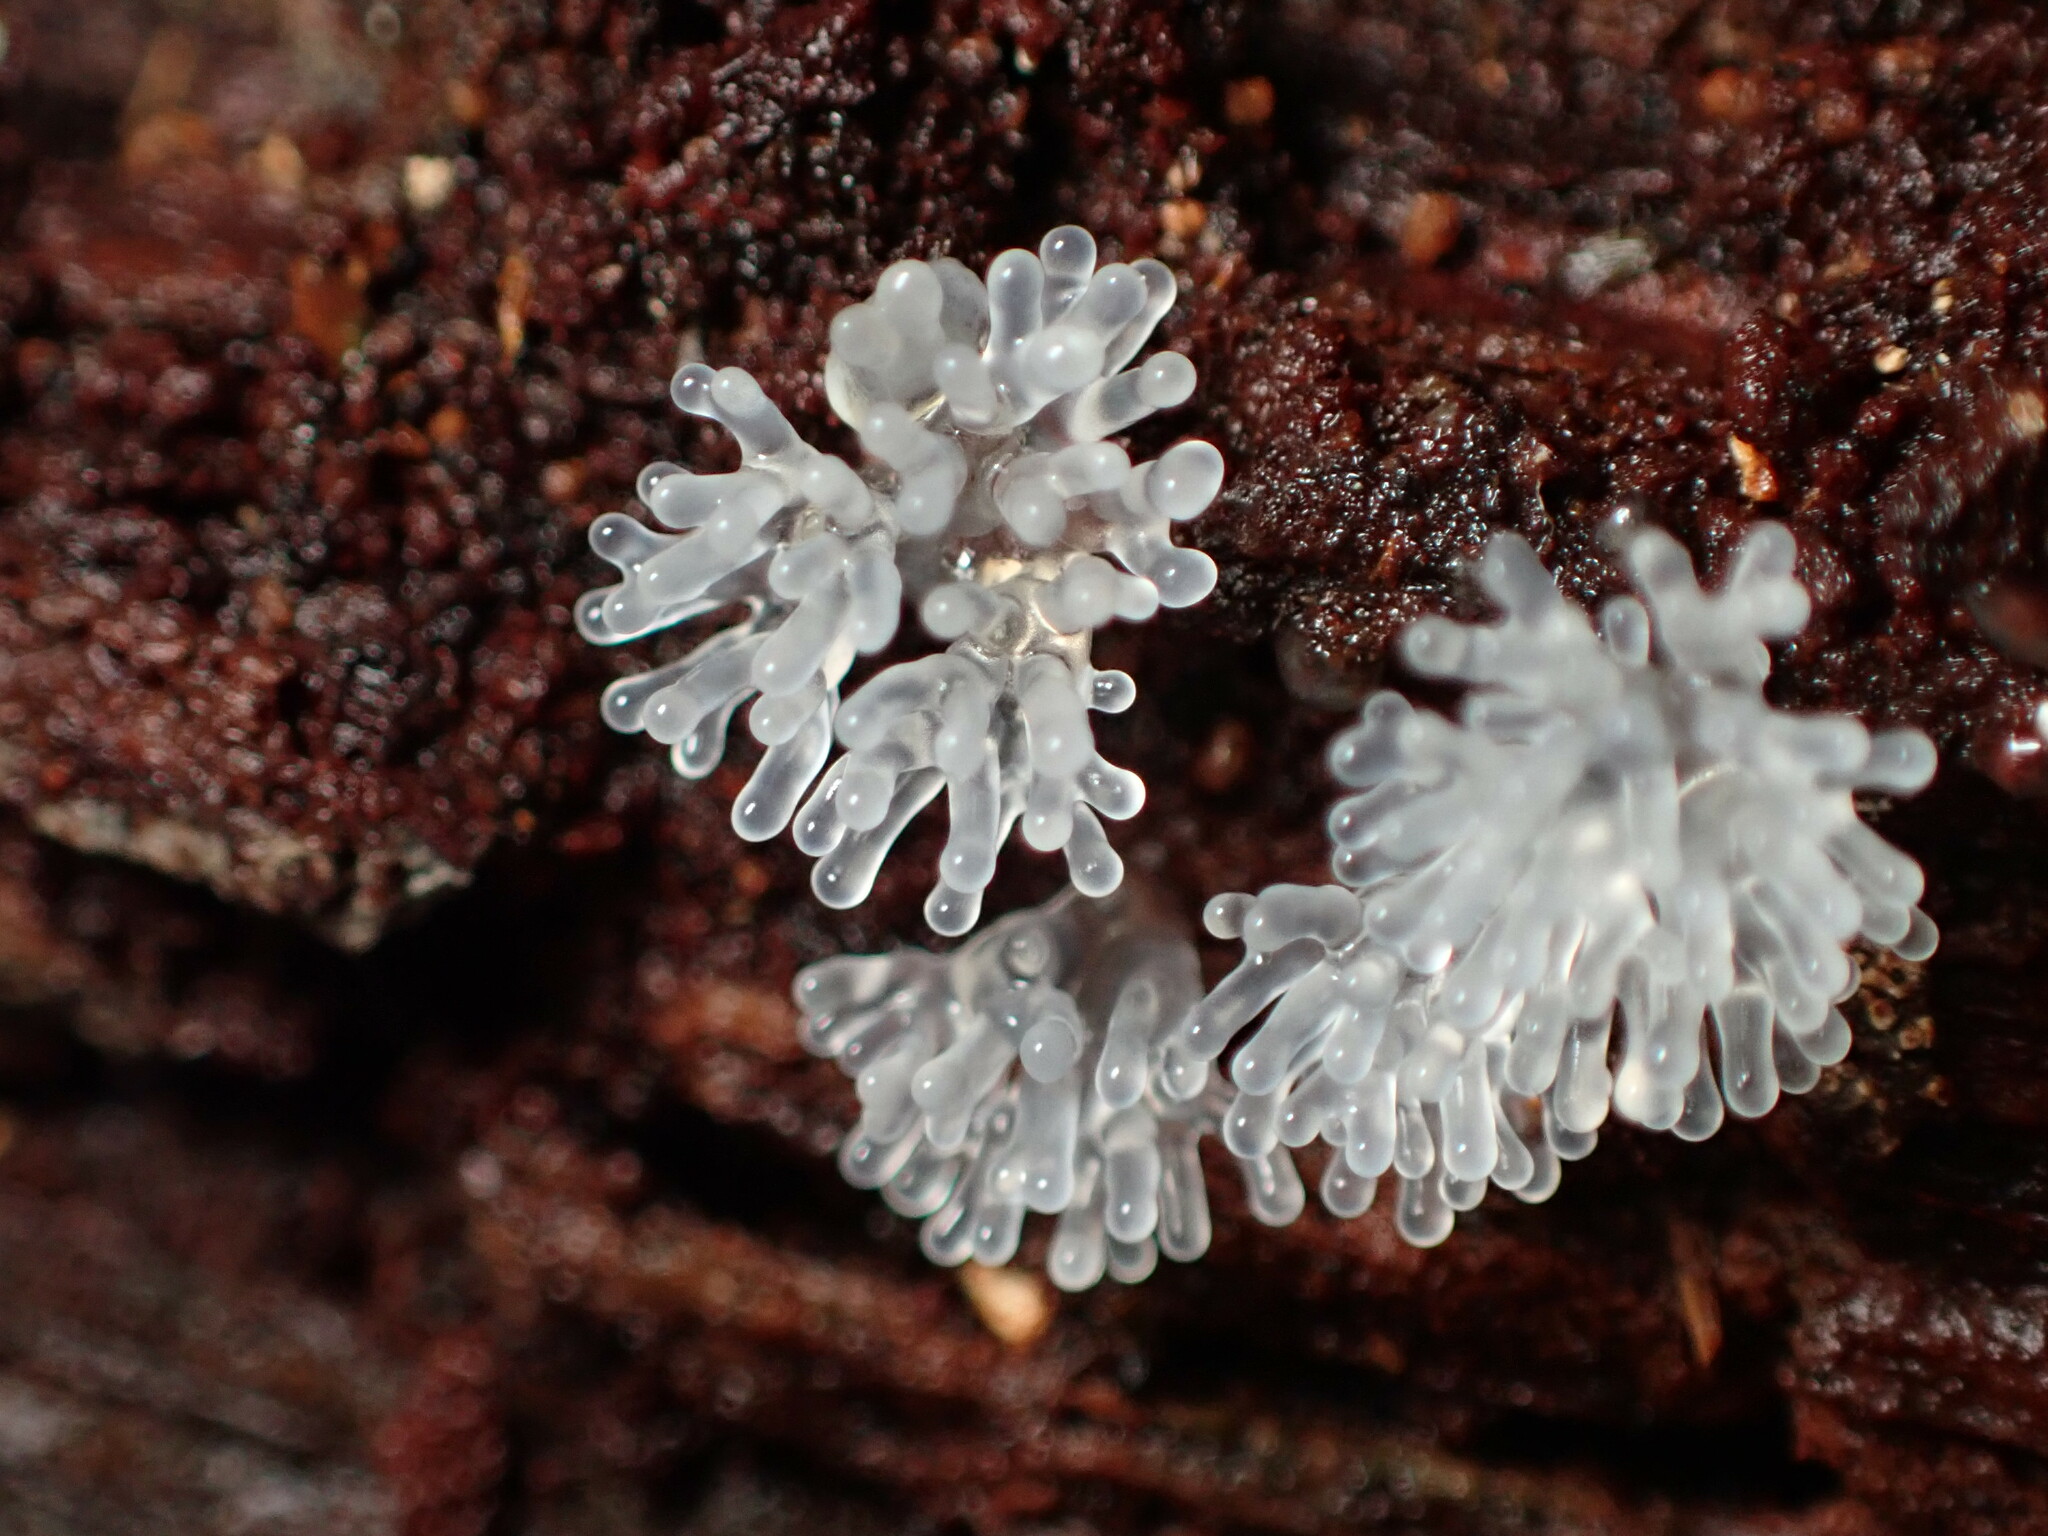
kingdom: Protozoa
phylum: Mycetozoa
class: Protosteliomycetes
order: Ceratiomyxales
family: Ceratiomyxaceae
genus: Ceratiomyxa
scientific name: Ceratiomyxa fruticulosa
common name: Honeycomb coral slime mold
